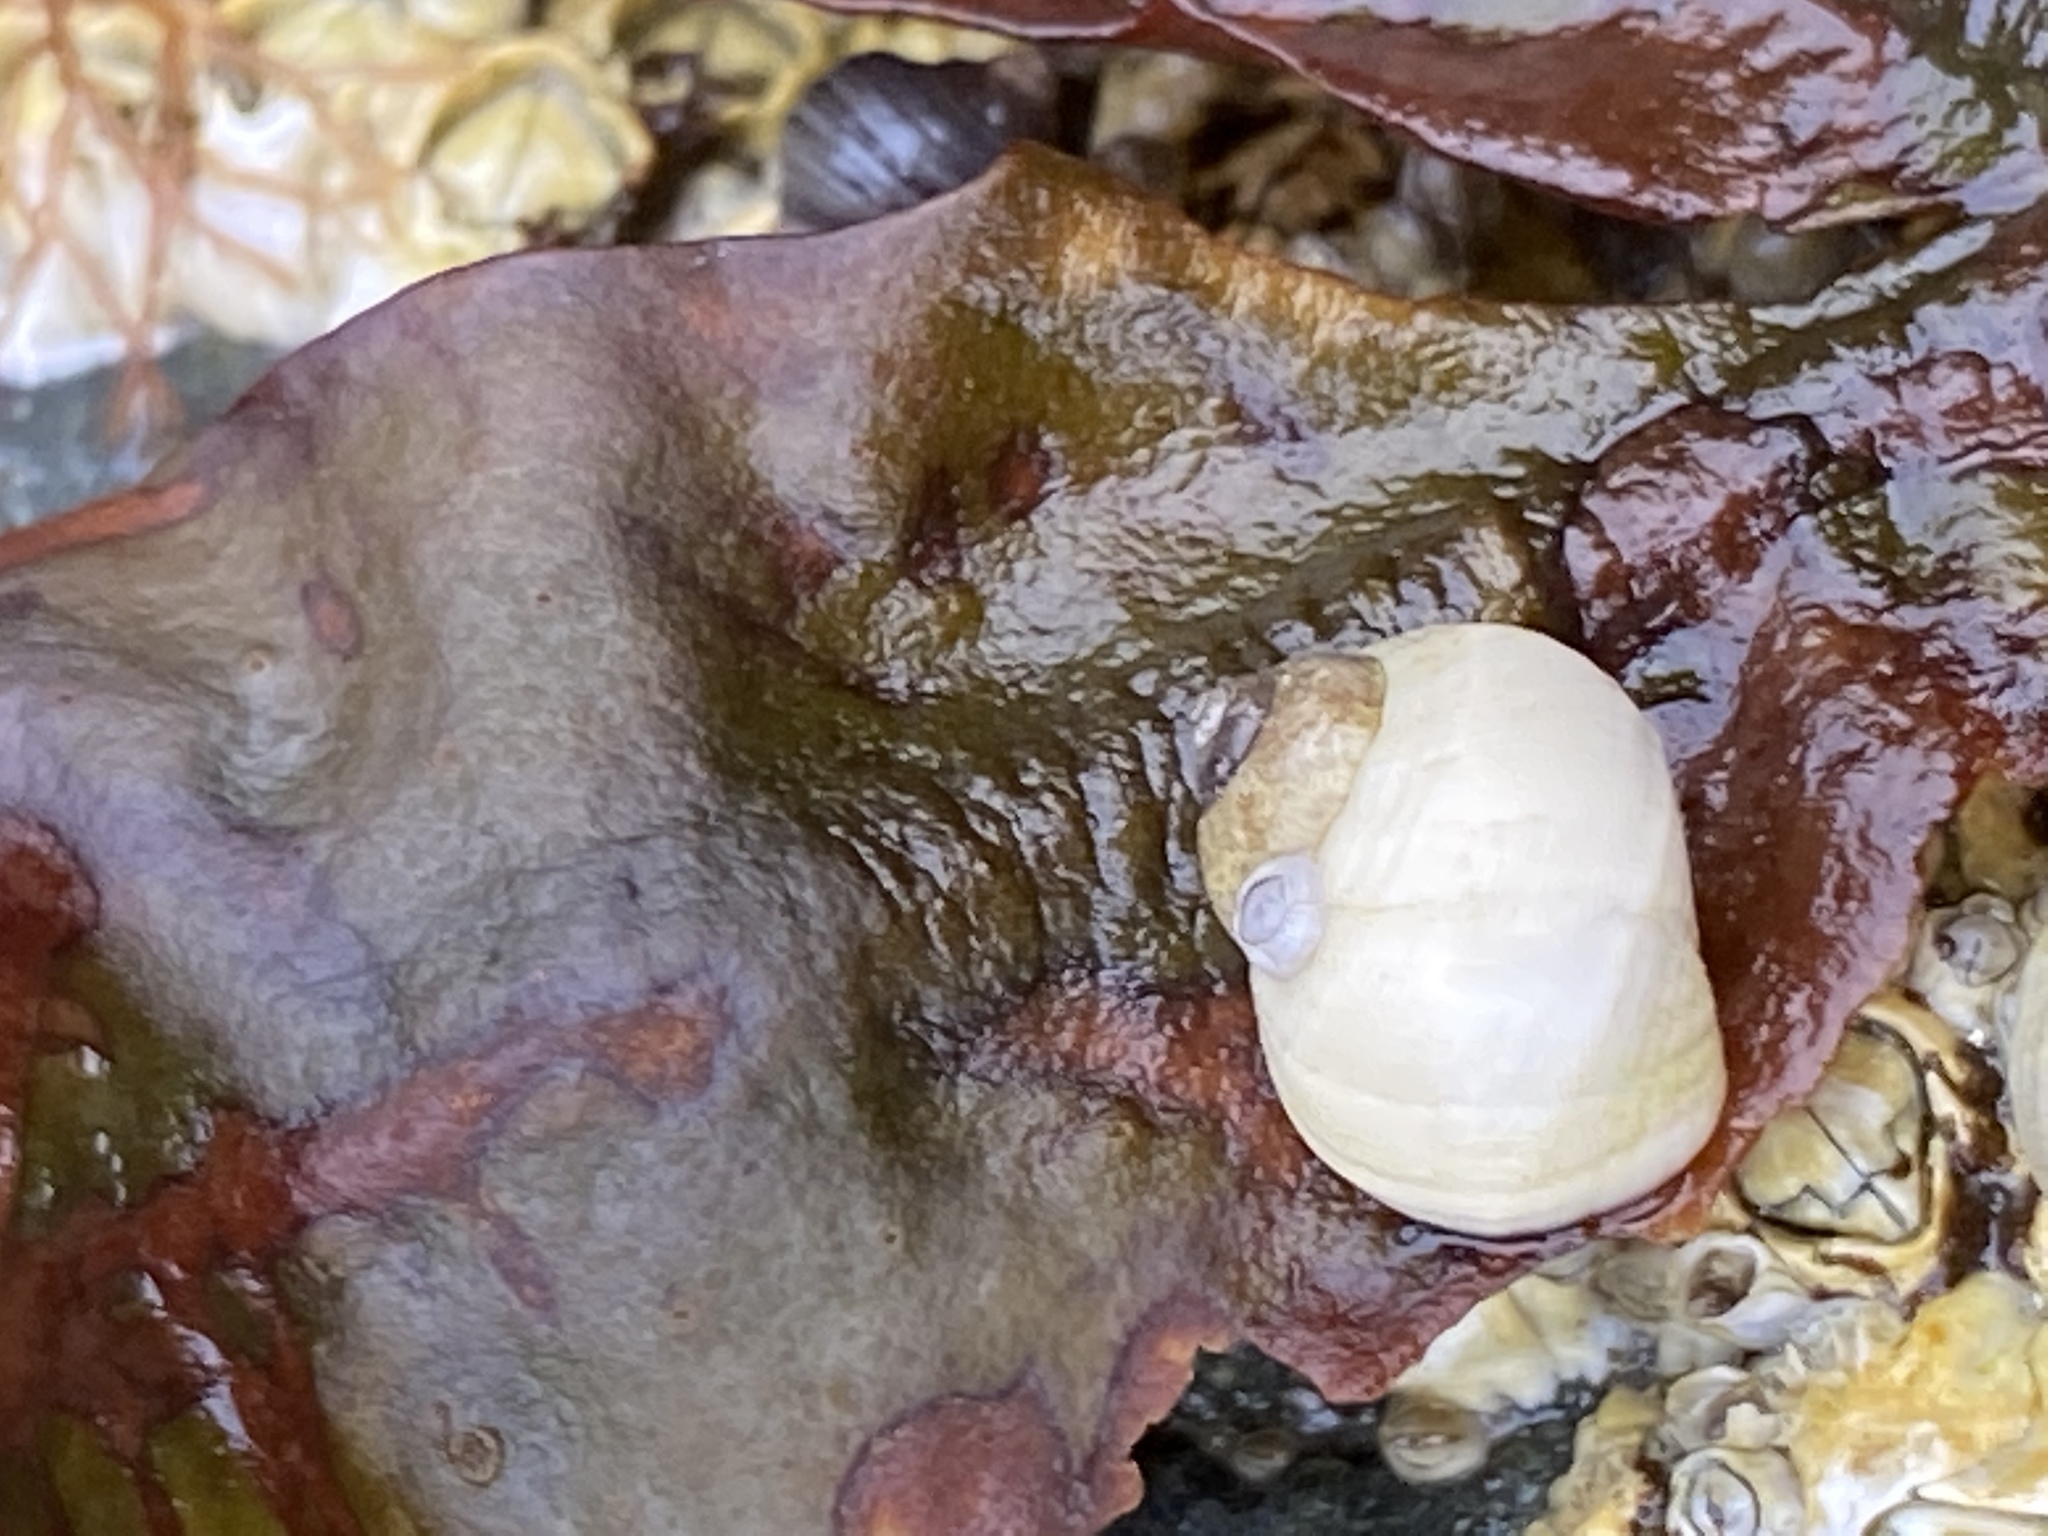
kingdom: Animalia
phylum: Mollusca
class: Gastropoda
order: Littorinimorpha
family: Littorinidae
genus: Littorina
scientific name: Littorina saxatilis
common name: Black-lined periwinkle
